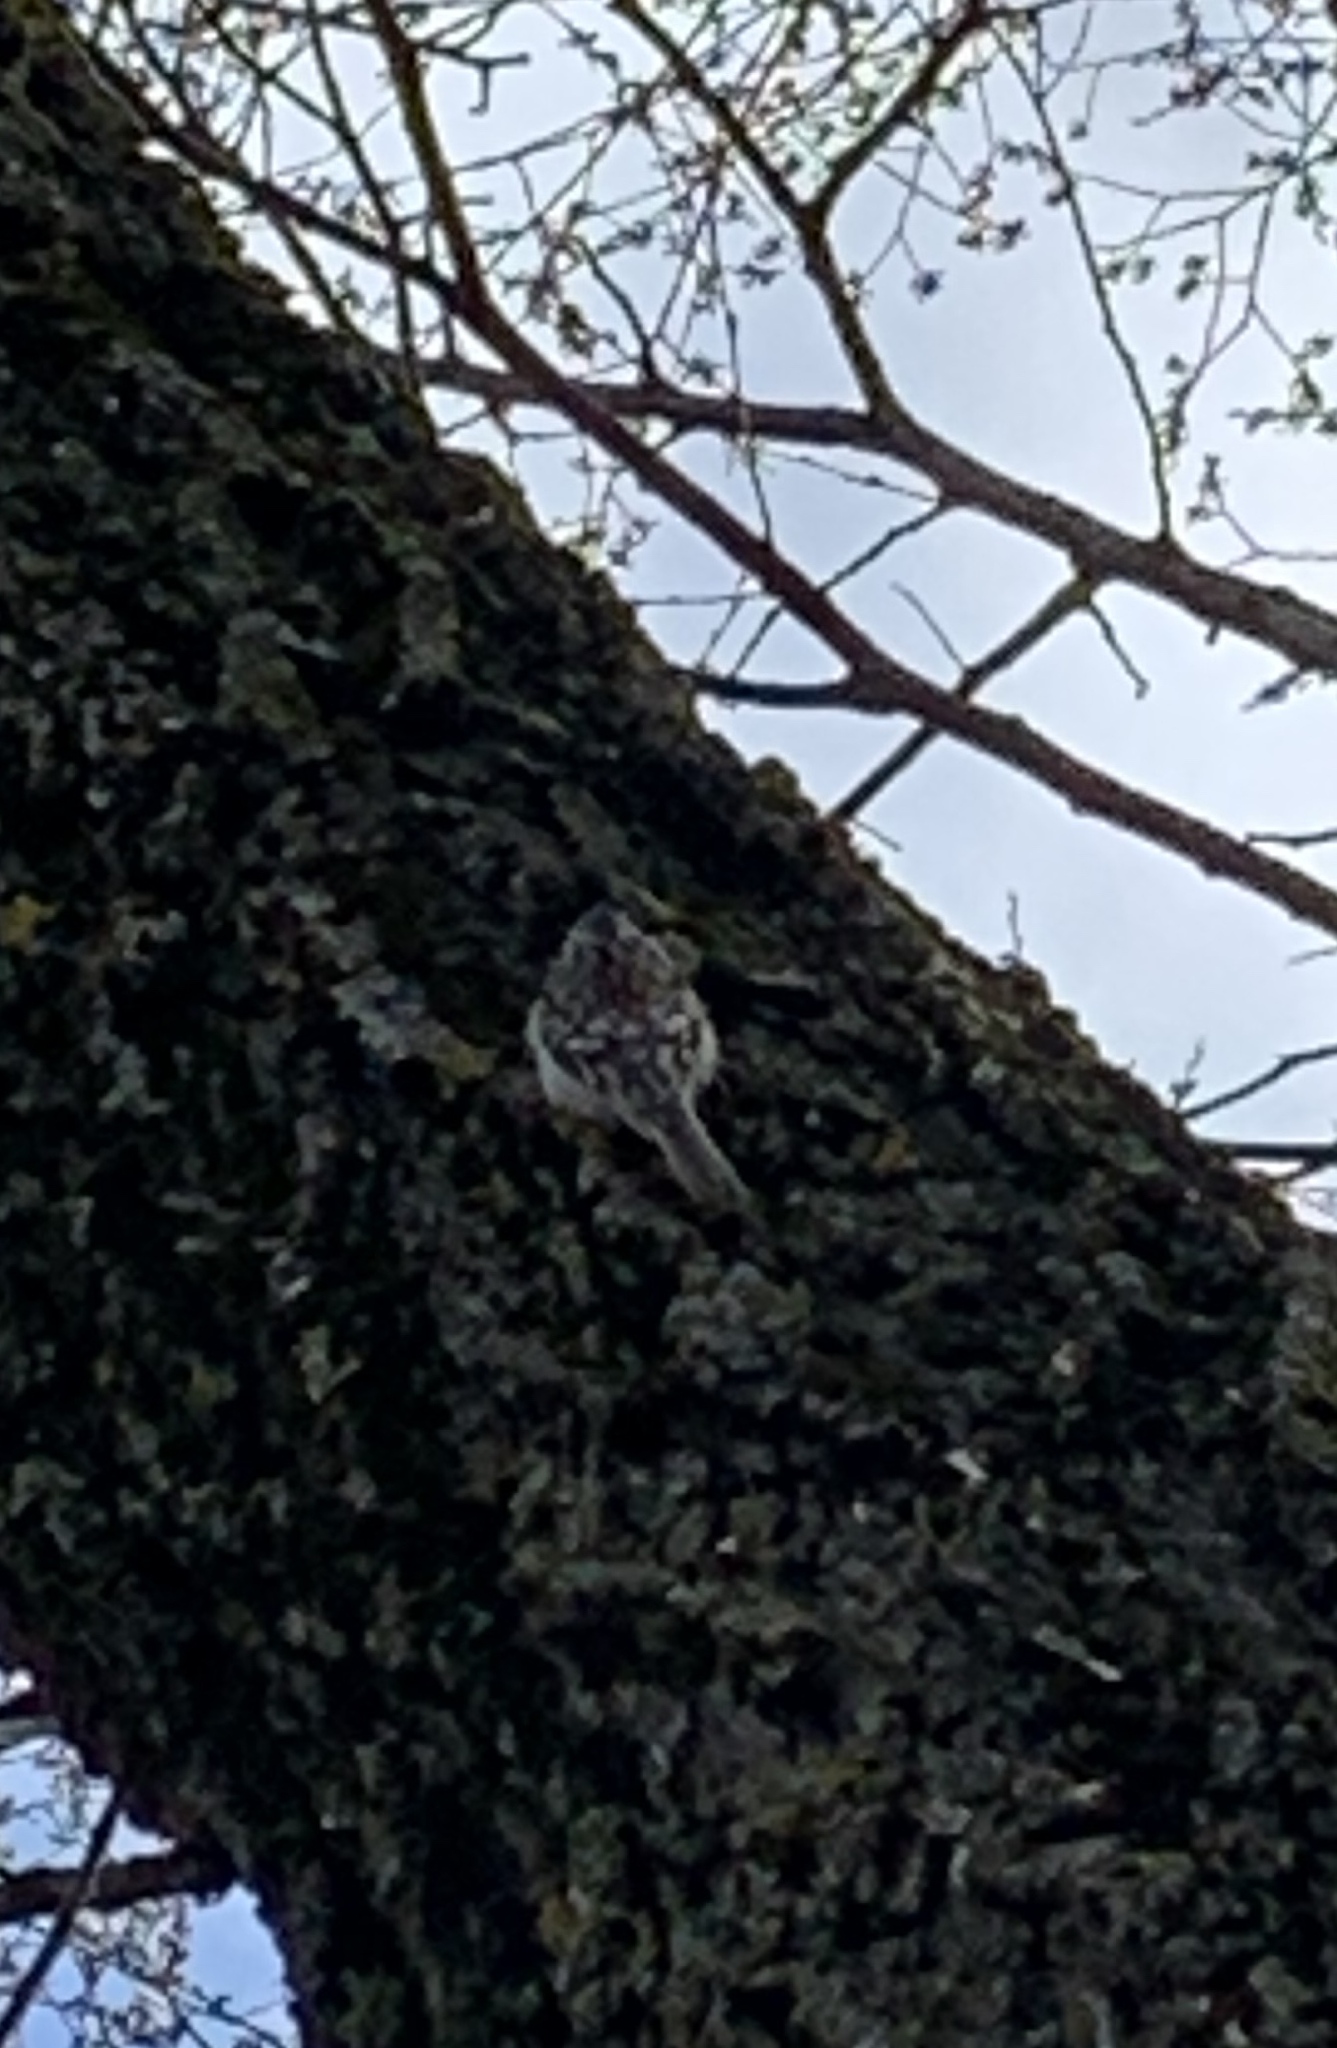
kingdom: Animalia
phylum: Chordata
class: Aves
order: Passeriformes
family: Certhiidae
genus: Certhia
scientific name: Certhia americana
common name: Brown creeper
